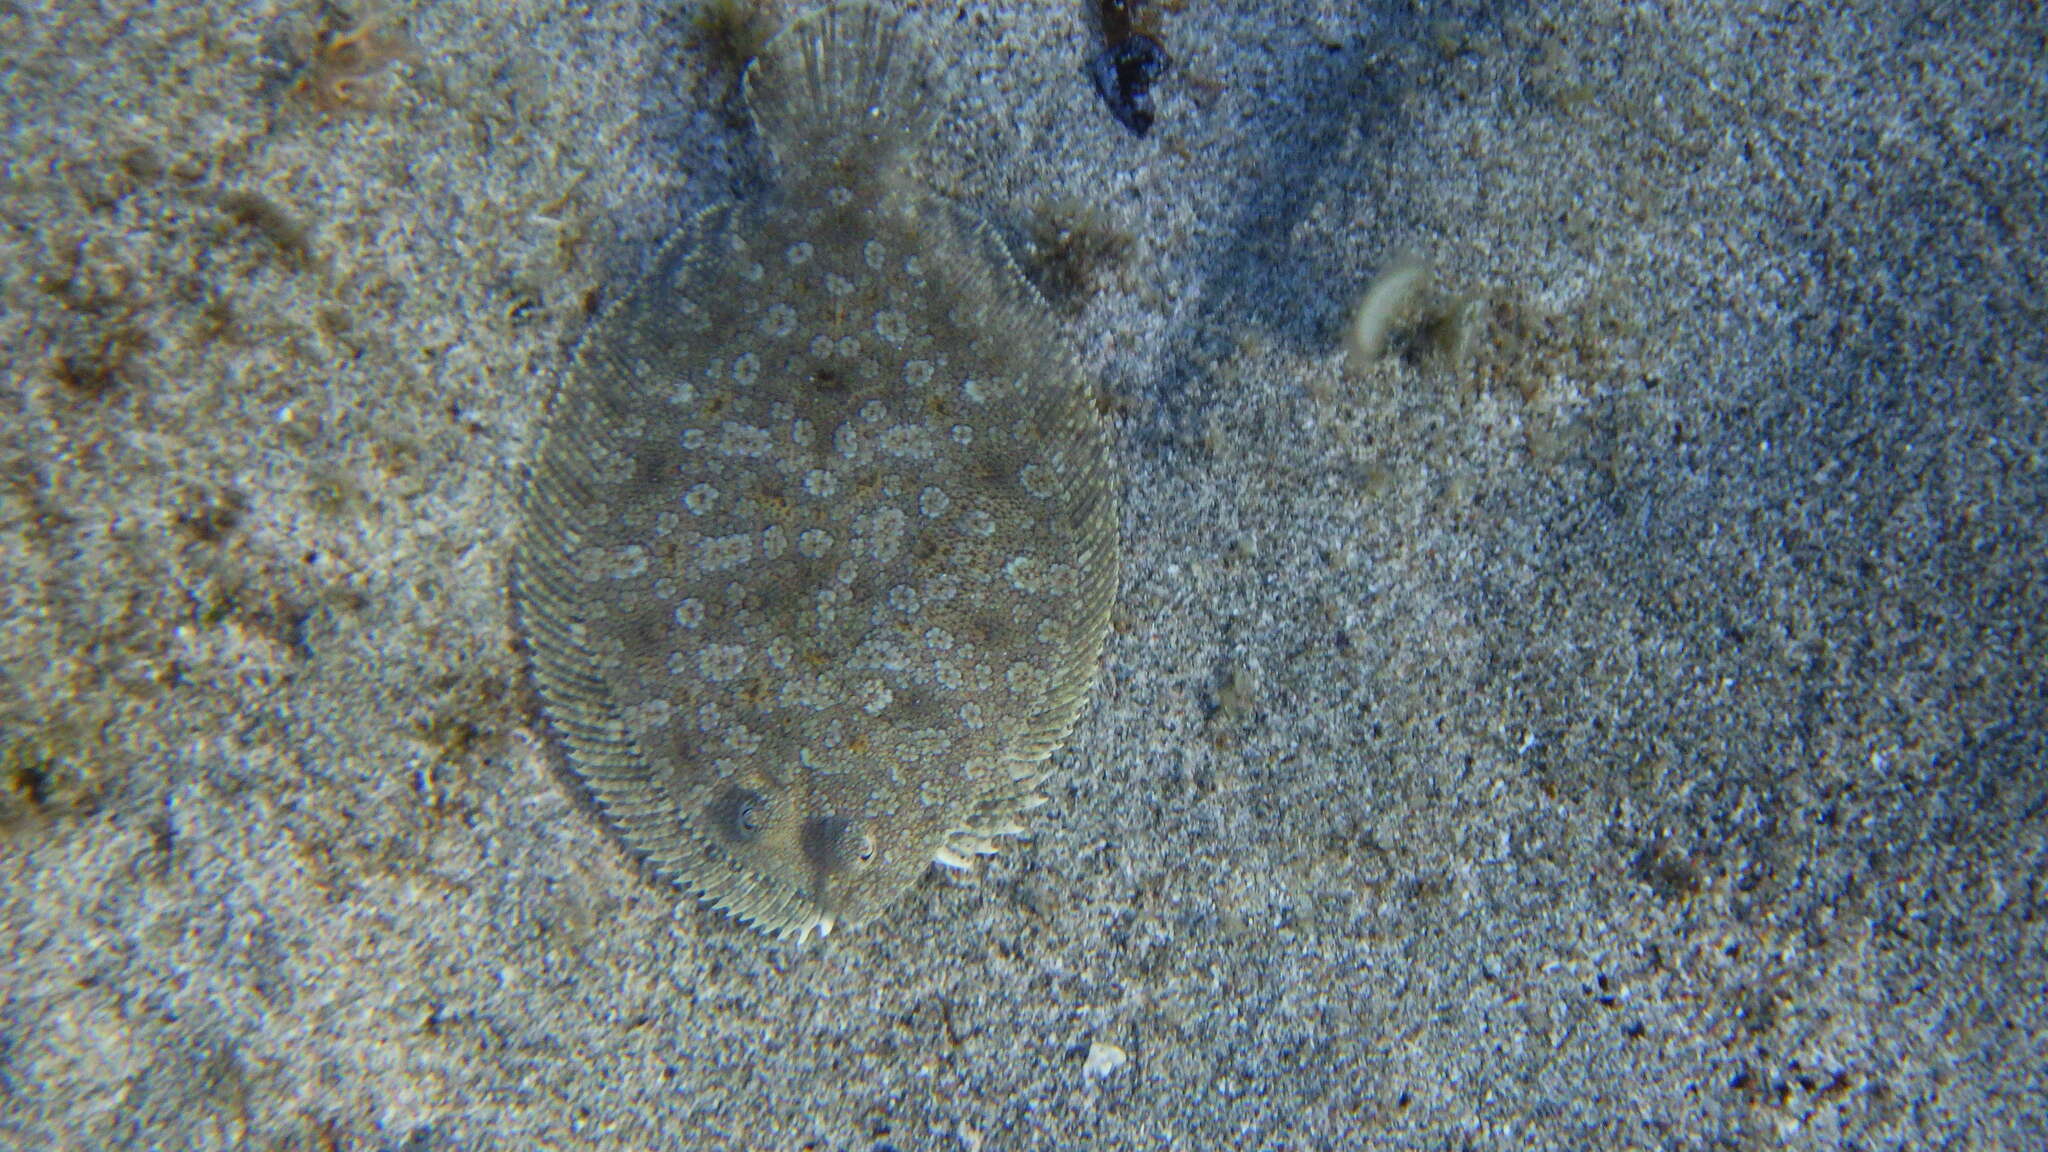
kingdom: Animalia
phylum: Chordata
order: Pleuronectiformes
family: Bothidae
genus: Bothus
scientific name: Bothus podas
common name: Wide-eyed flounder
